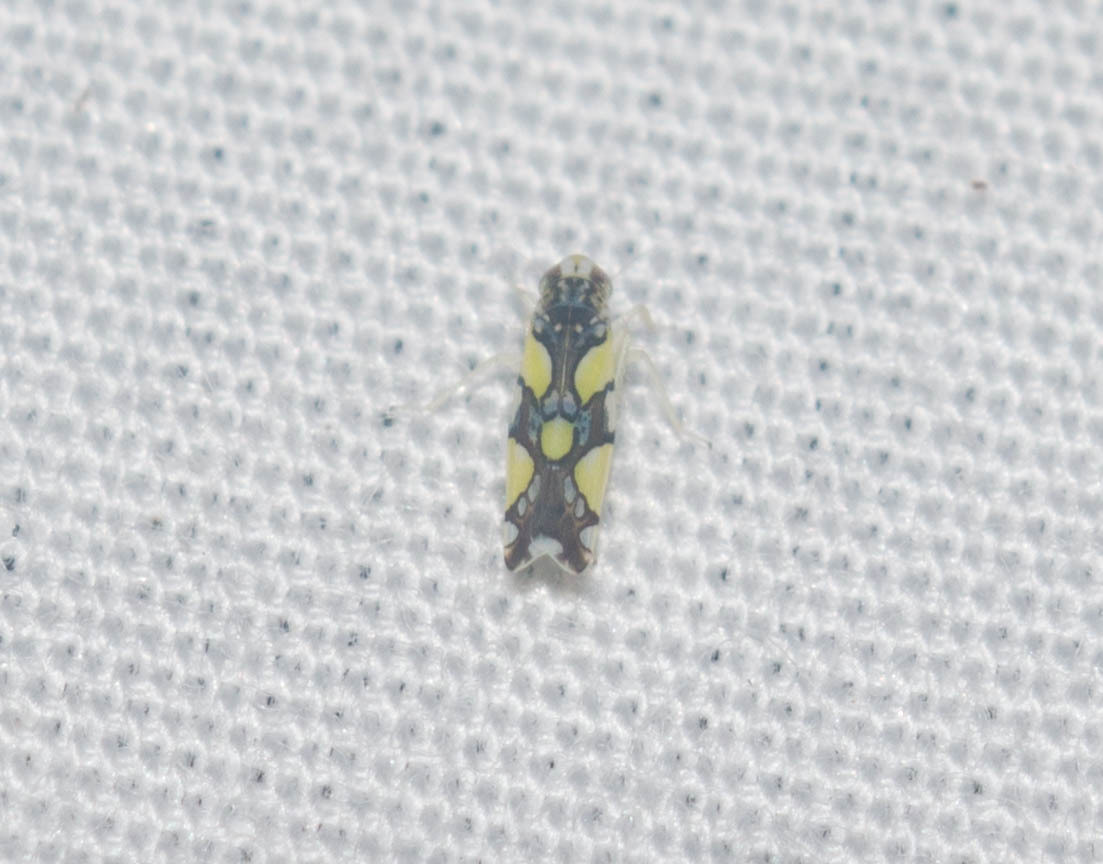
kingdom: Animalia
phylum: Arthropoda
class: Insecta
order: Hemiptera
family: Cicadellidae
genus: Protalebrella
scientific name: Protalebrella brasiliensis
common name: Brasilian leafhopper
